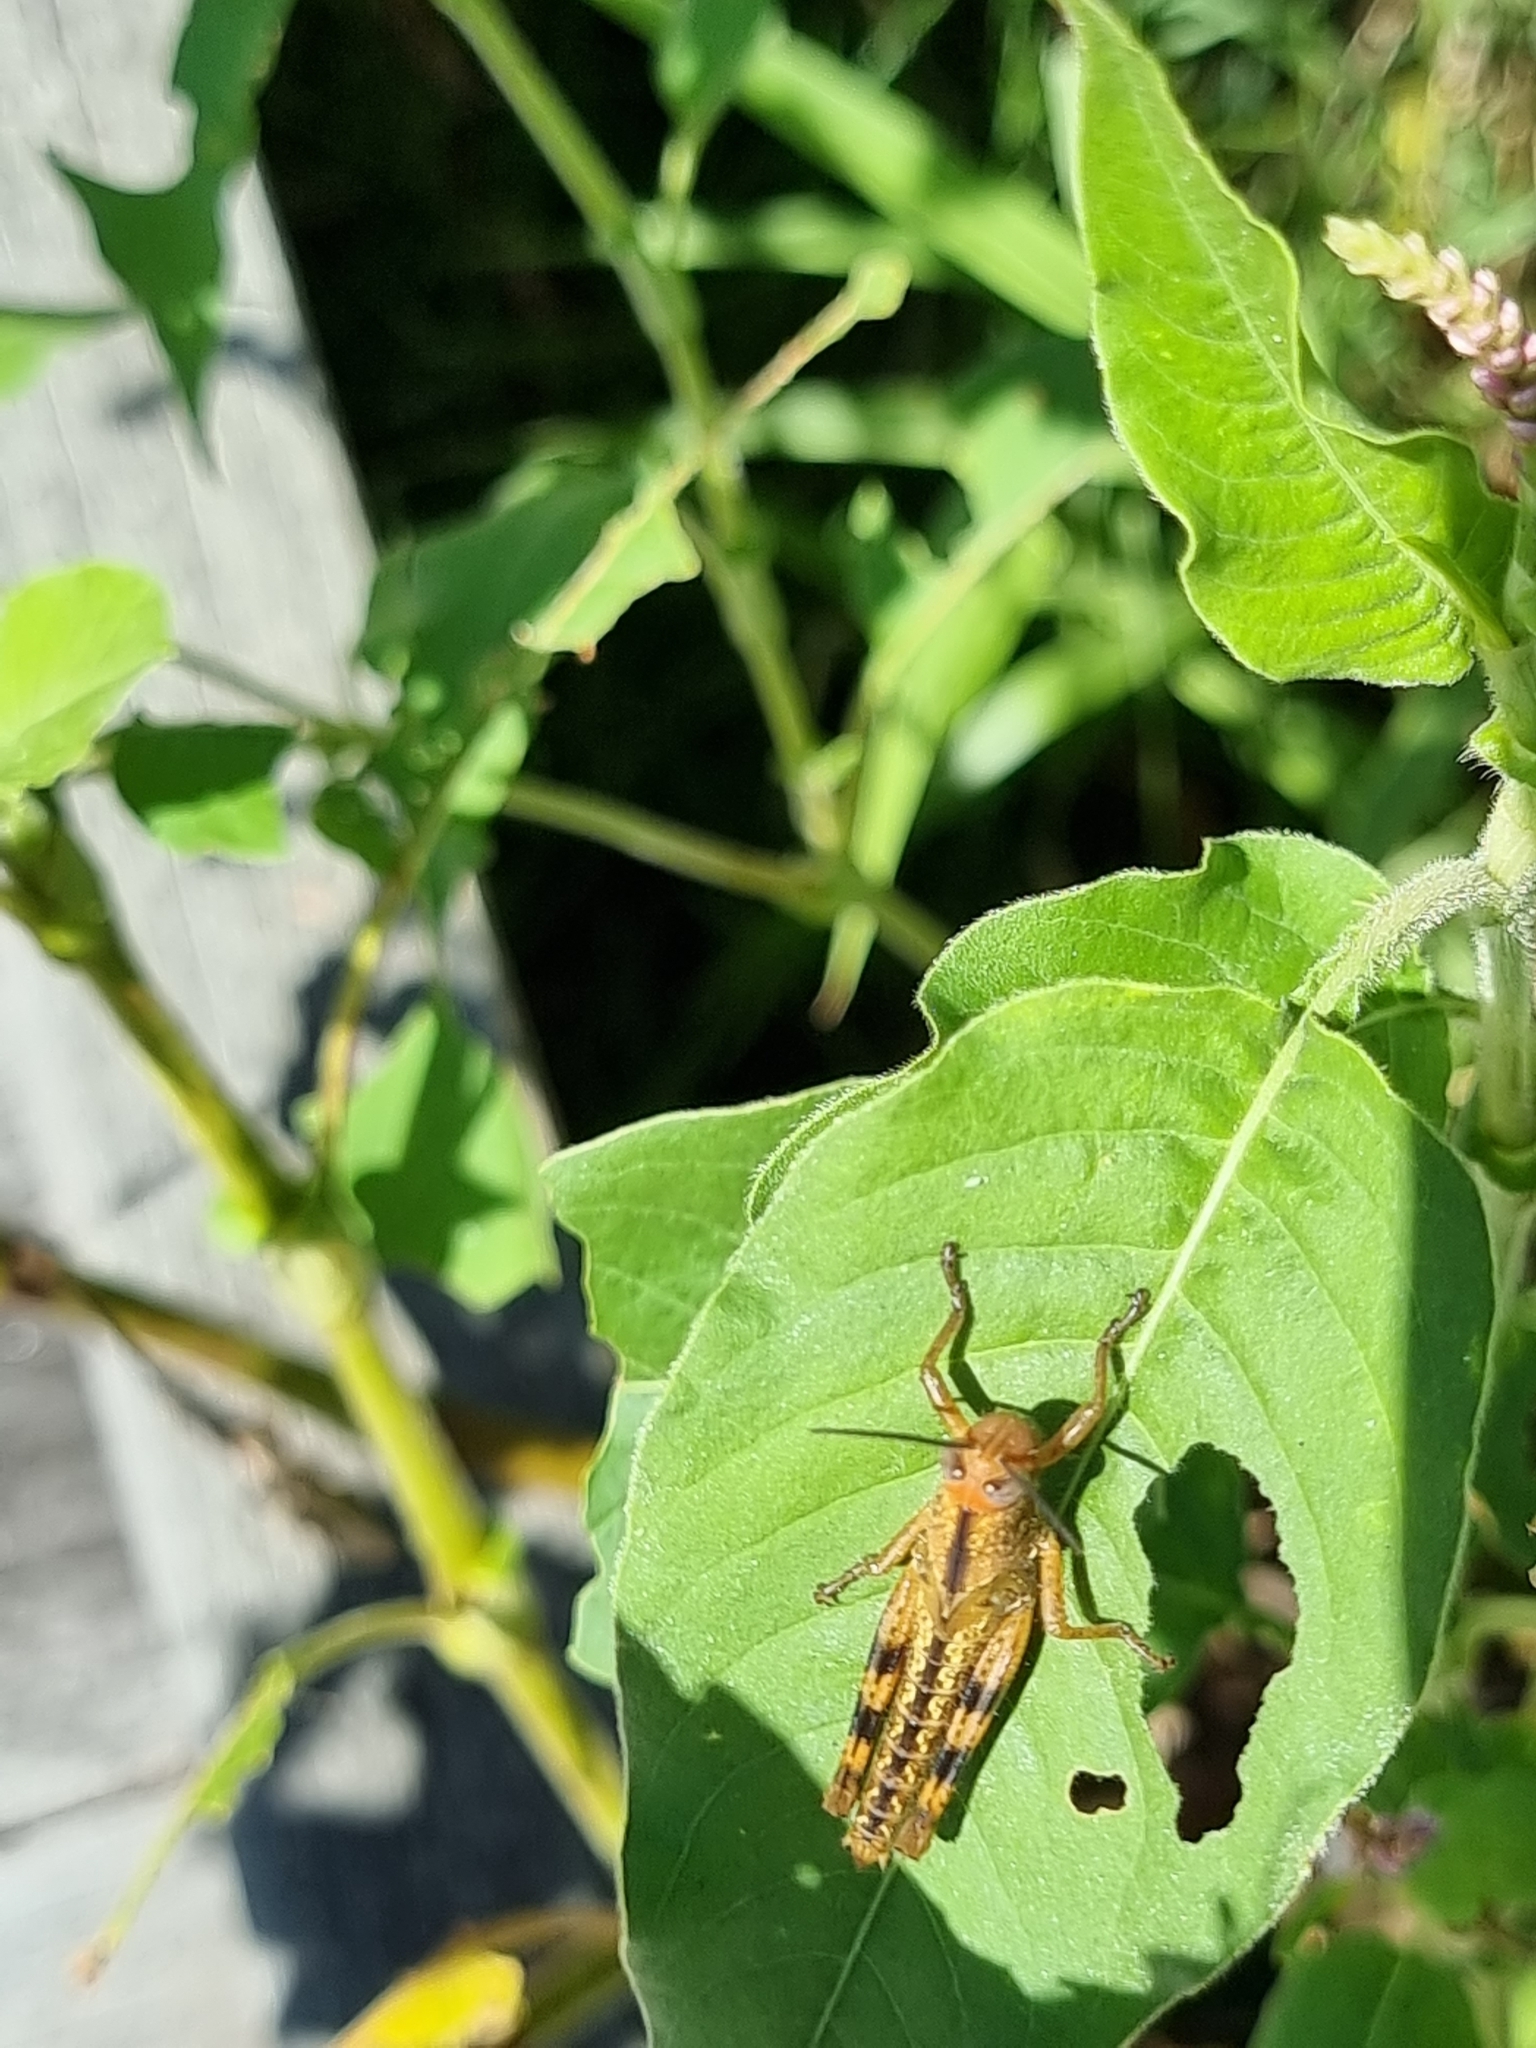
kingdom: Animalia
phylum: Arthropoda
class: Insecta
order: Orthoptera
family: Acrididae
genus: Valanga
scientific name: Valanga irregularis
